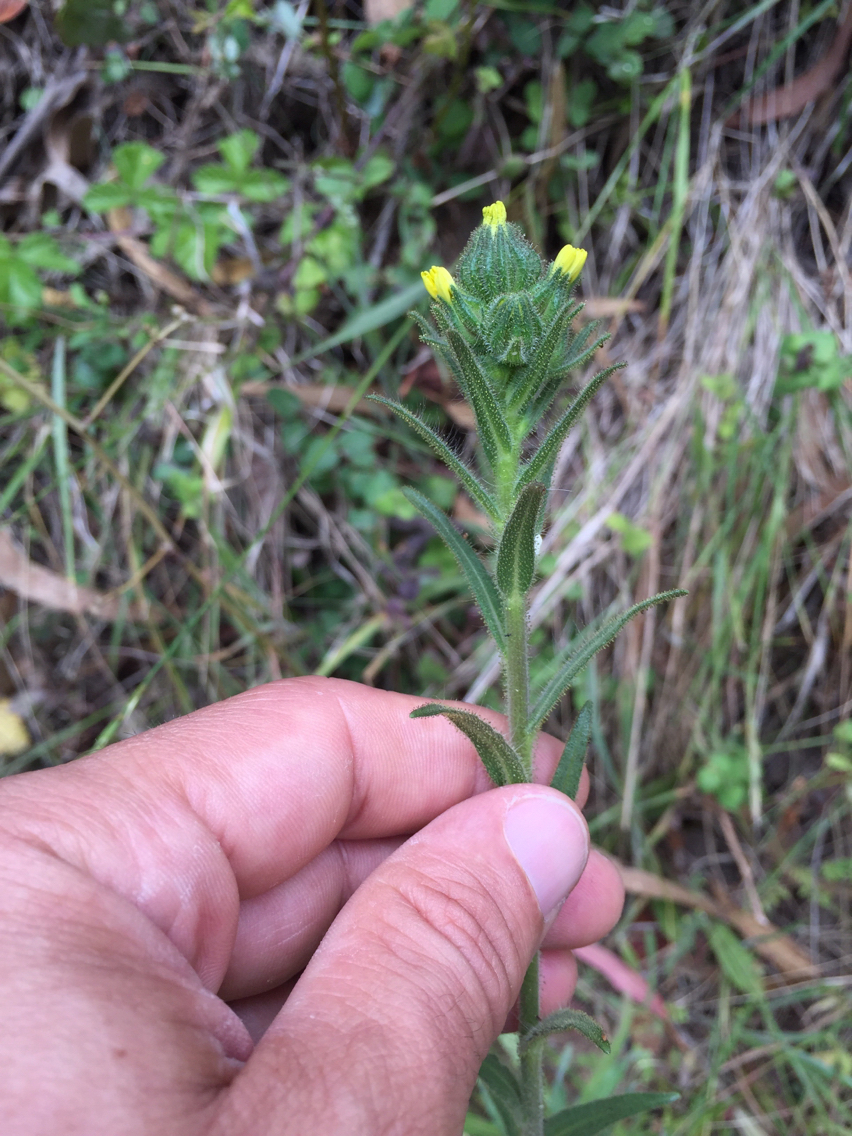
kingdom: Plantae
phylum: Tracheophyta
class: Magnoliopsida
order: Asterales
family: Asteraceae
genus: Madia
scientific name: Madia sativa
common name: Coast tarweed
